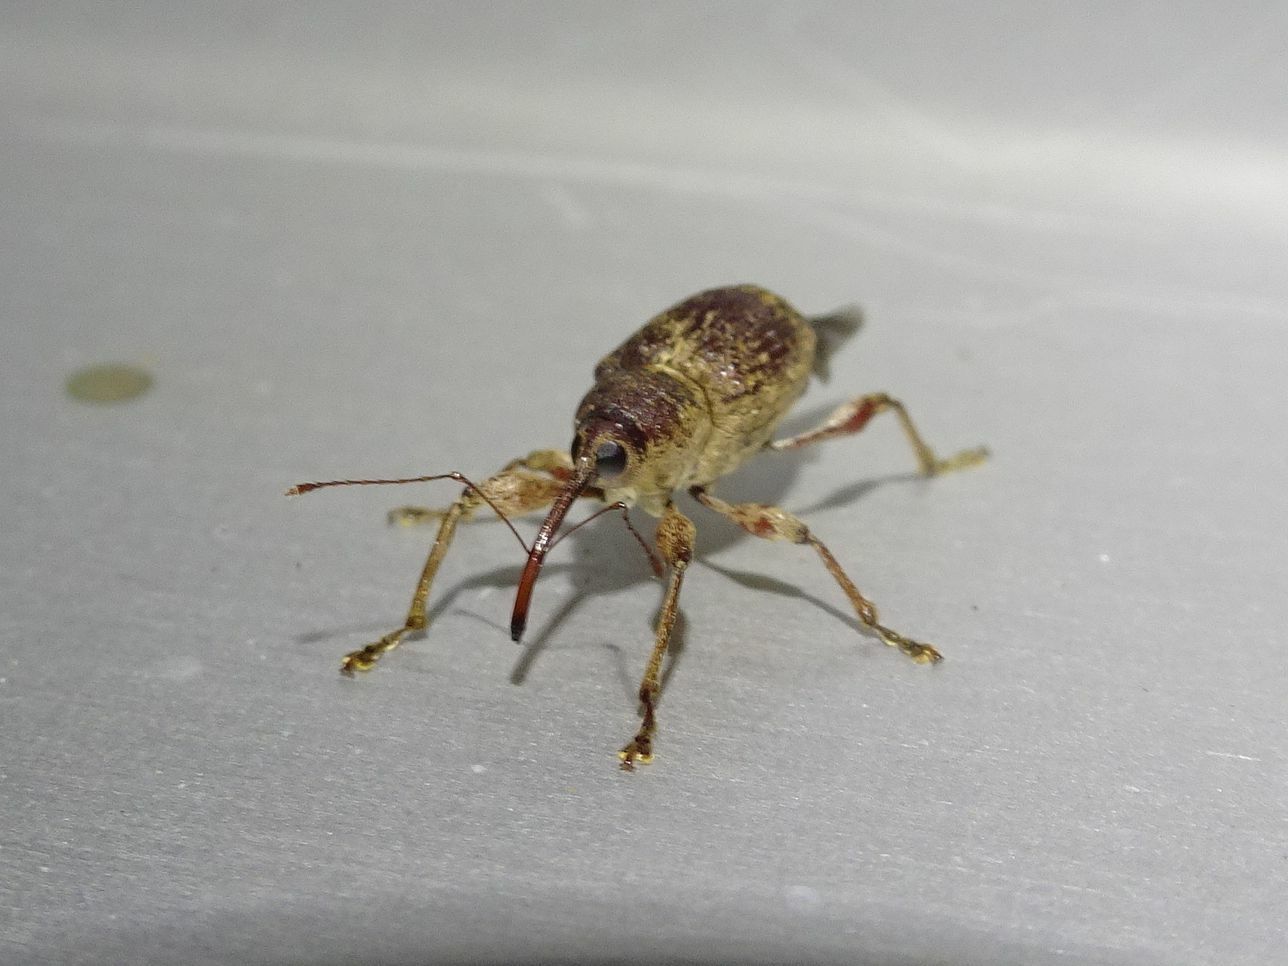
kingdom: Animalia
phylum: Arthropoda
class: Insecta
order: Coleoptera
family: Curculionidae
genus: Curculio
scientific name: Curculio elephas
